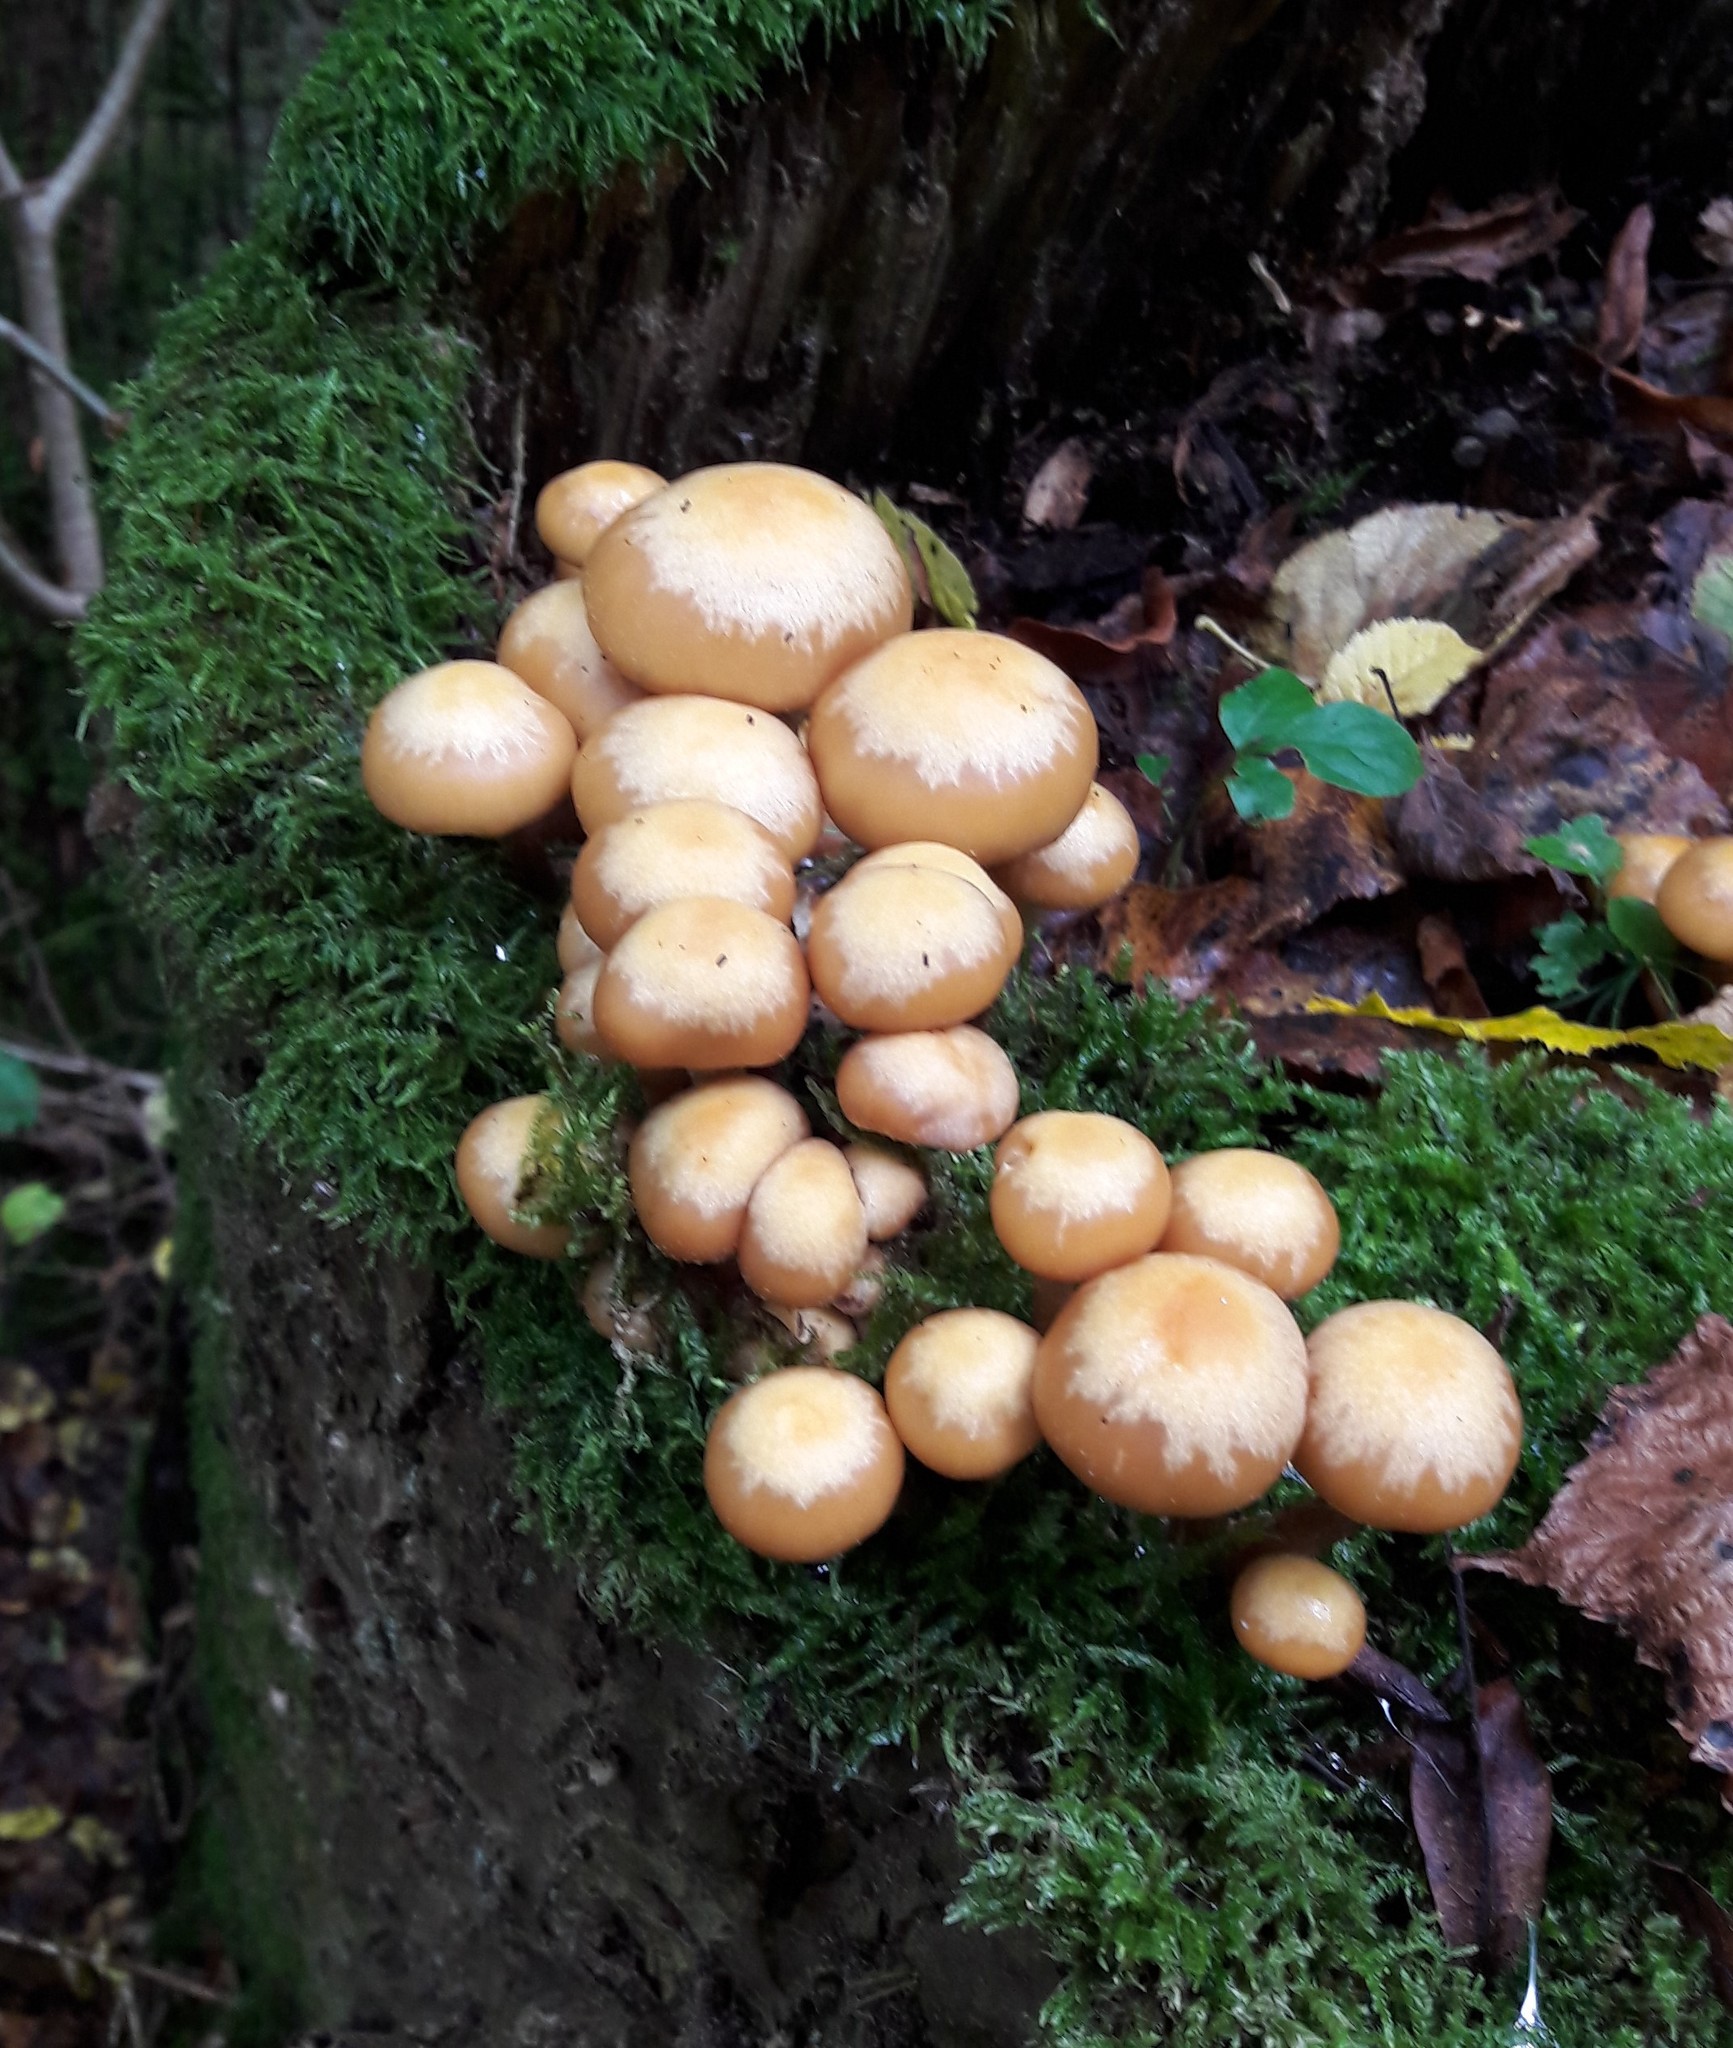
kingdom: Fungi
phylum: Basidiomycota
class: Agaricomycetes
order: Agaricales
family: Strophariaceae
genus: Kuehneromyces
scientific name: Kuehneromyces mutabilis
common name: Sheathed woodtuft
